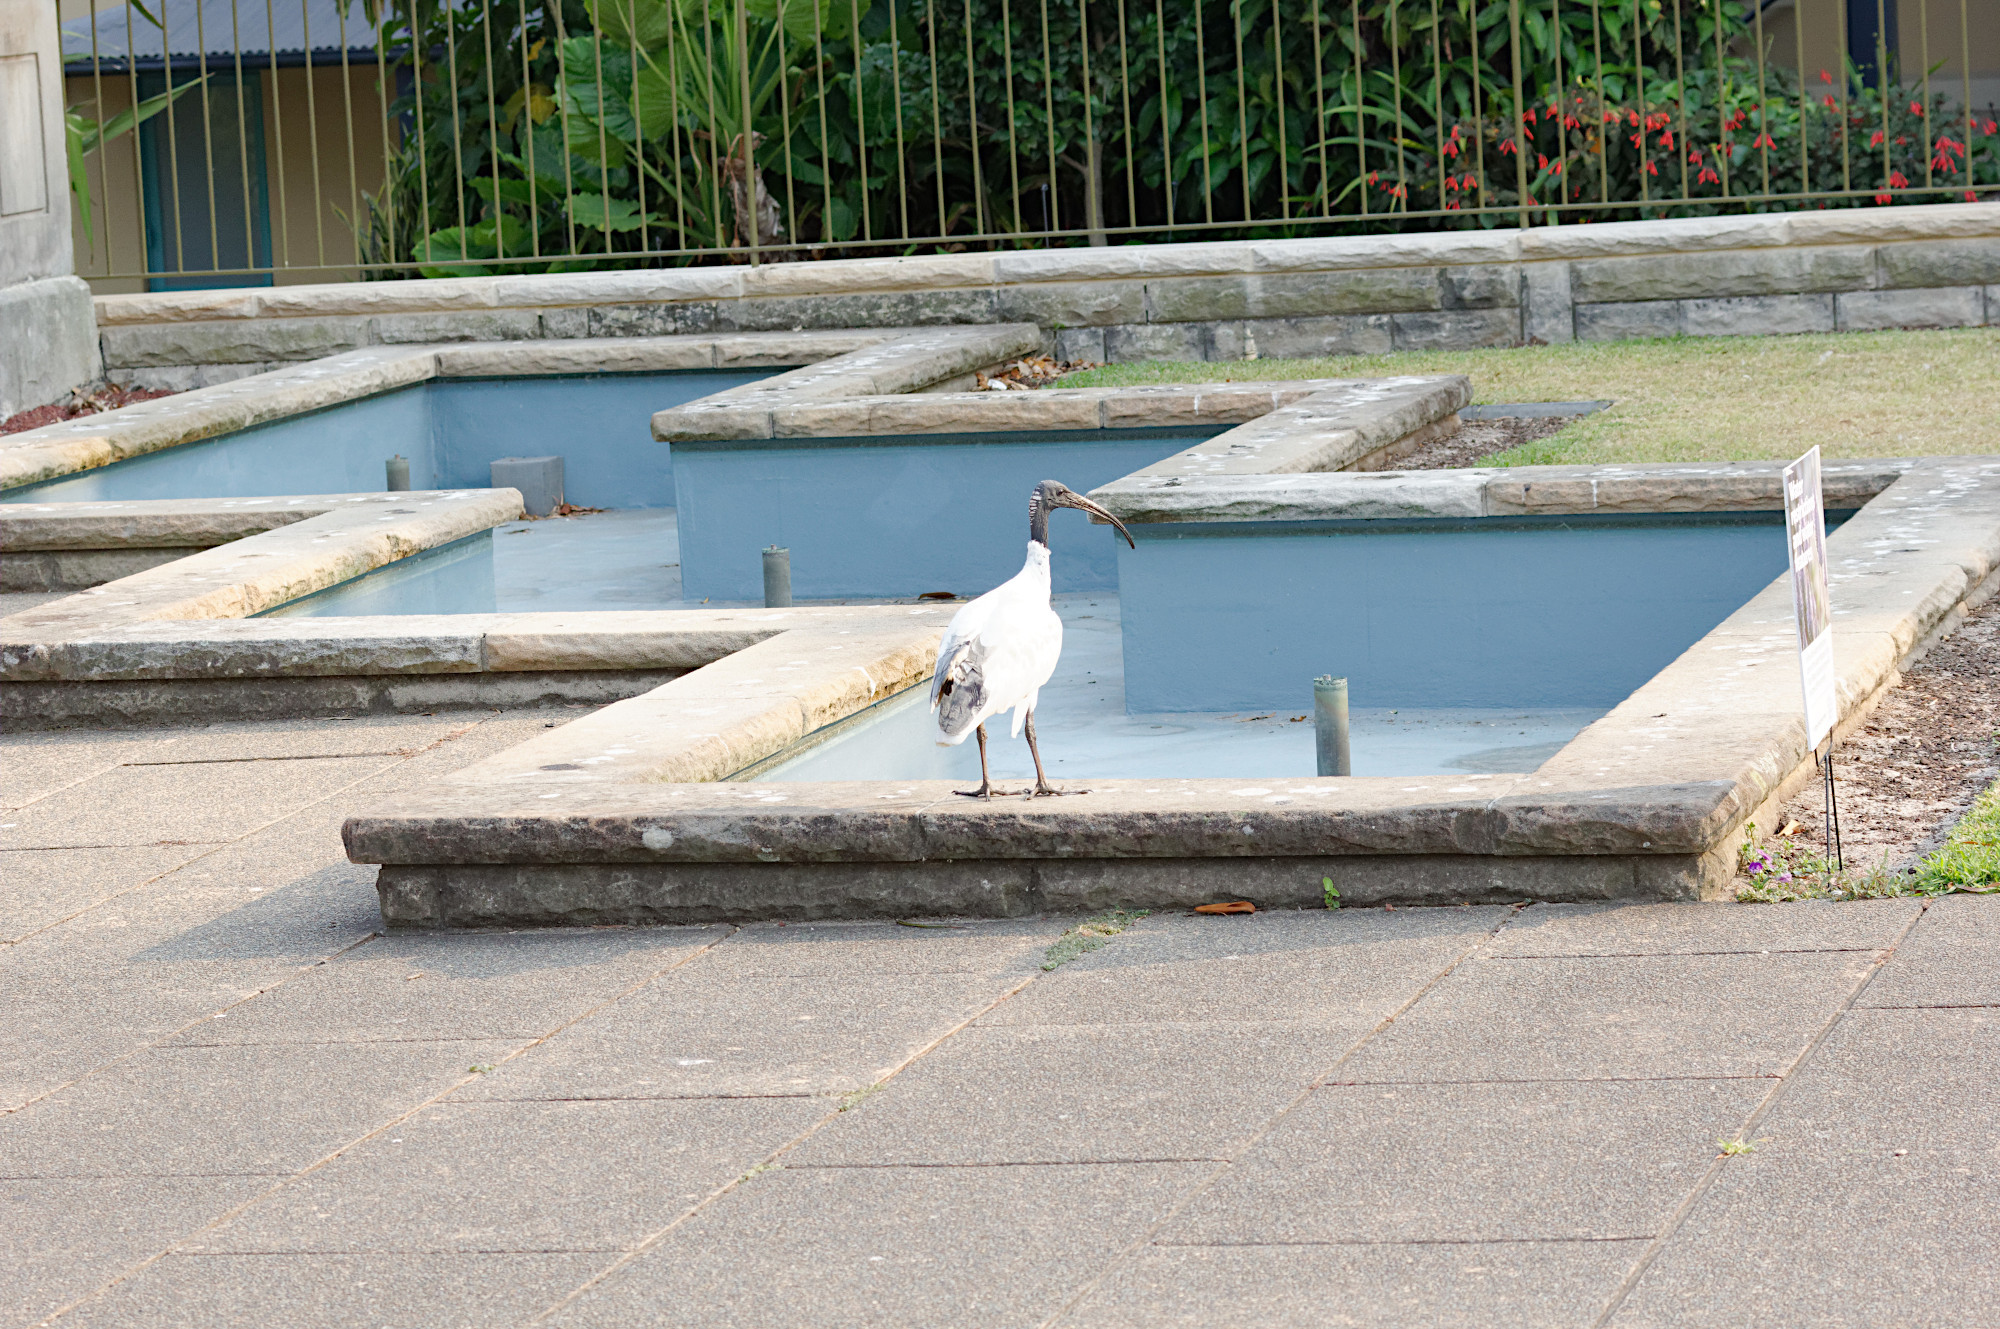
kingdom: Animalia
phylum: Chordata
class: Aves
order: Pelecaniformes
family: Threskiornithidae
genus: Threskiornis
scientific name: Threskiornis molucca
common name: Australian white ibis
